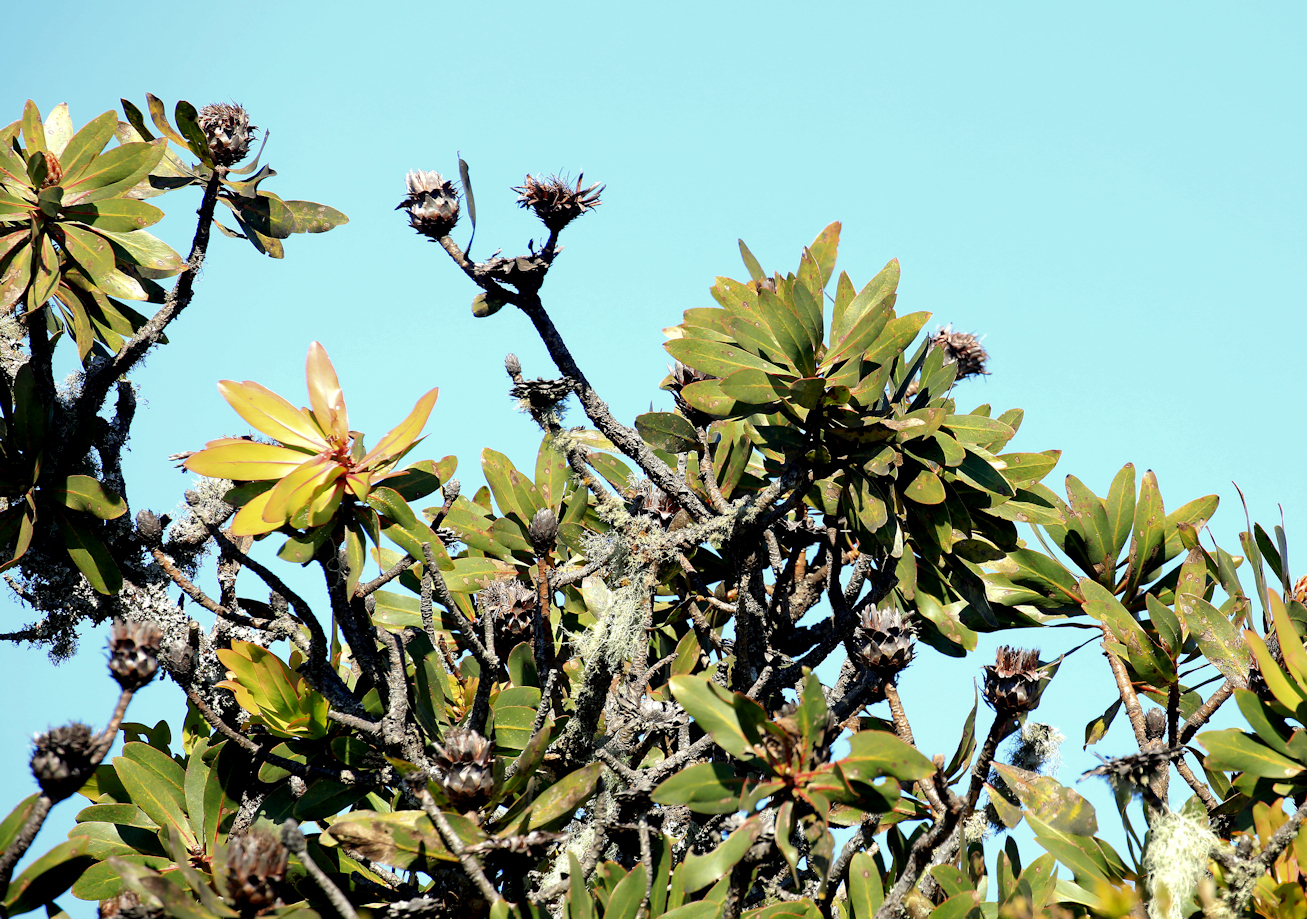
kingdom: Plantae
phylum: Tracheophyta
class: Magnoliopsida
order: Proteales
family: Proteaceae
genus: Protea
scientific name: Protea rubropilosa
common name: Escarpment sugarbush
